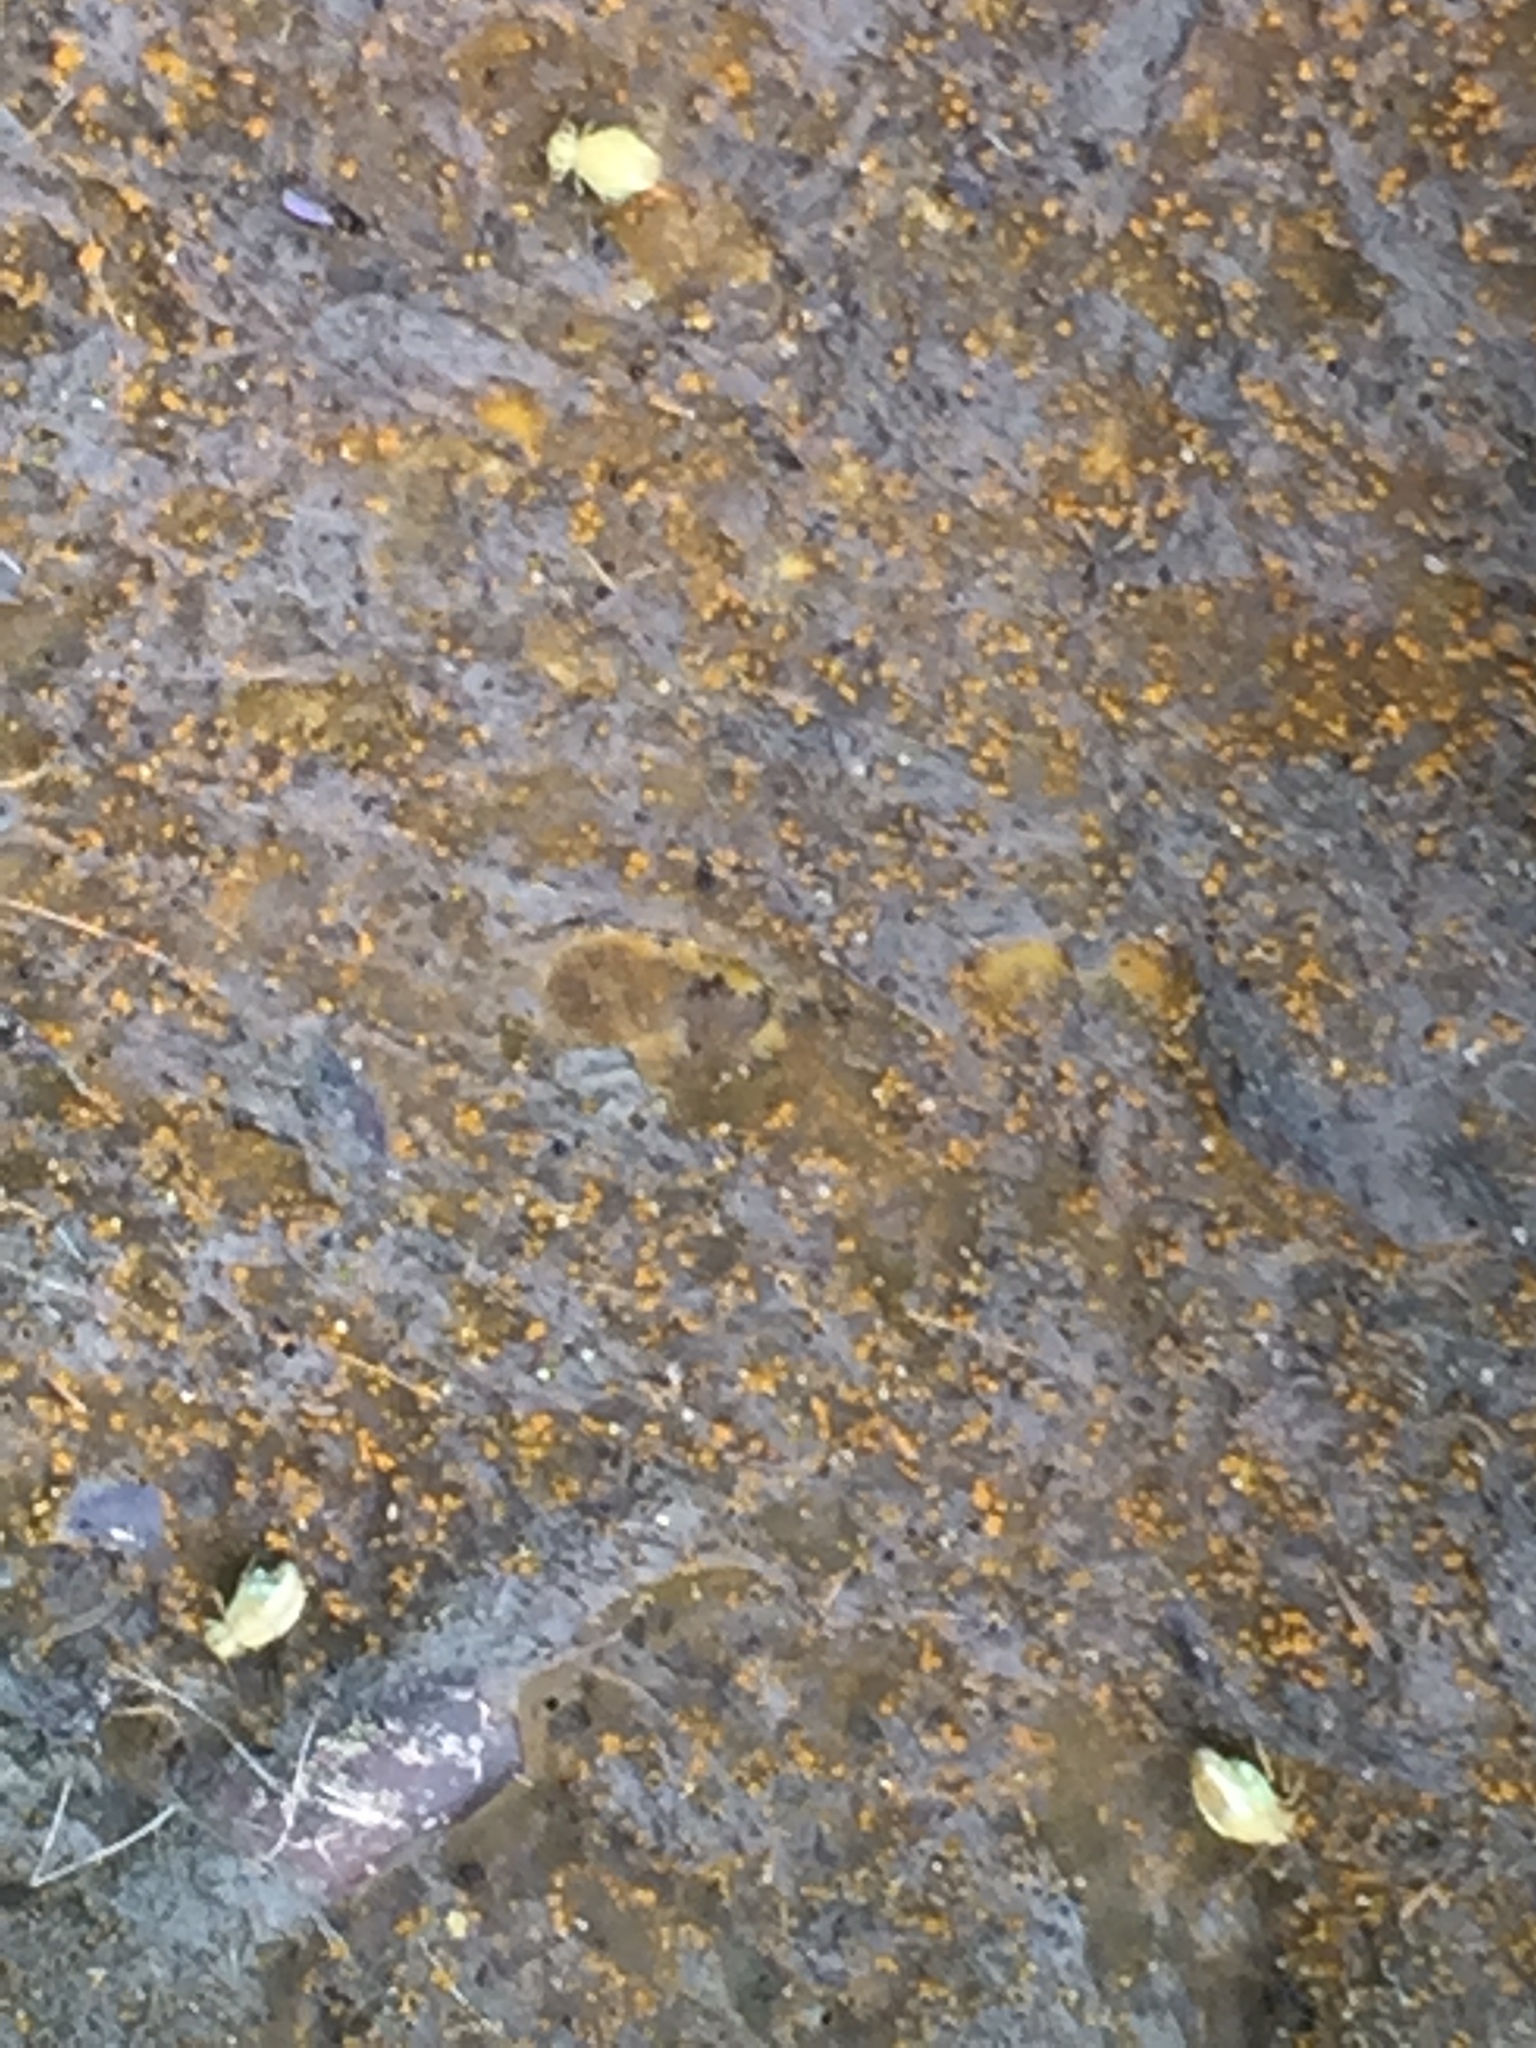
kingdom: Animalia
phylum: Arthropoda
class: Collembola
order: Symphypleona
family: Sminthuridae
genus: Sminthurus
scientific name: Sminthurus viridis
